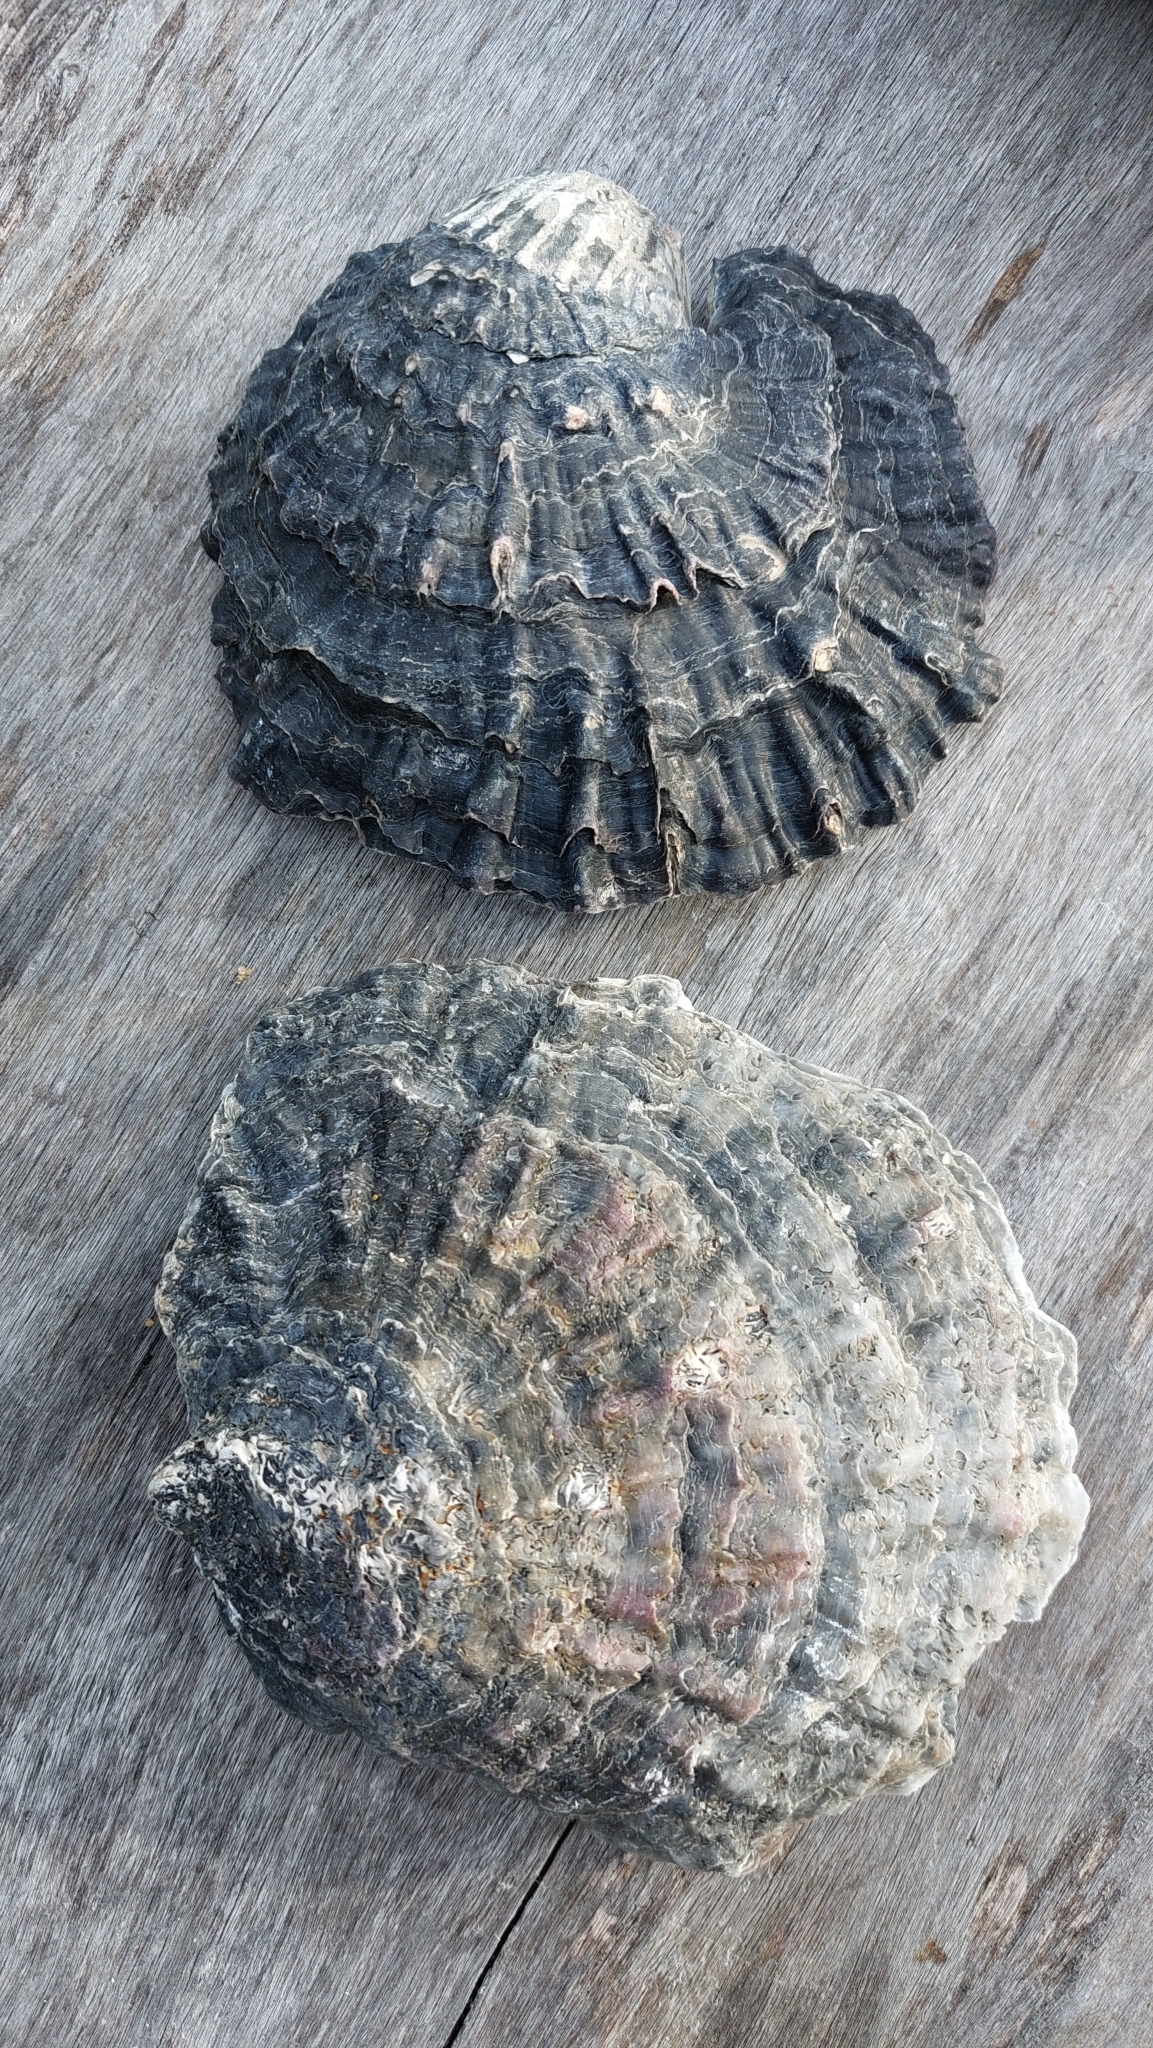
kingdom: Animalia
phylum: Mollusca
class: Bivalvia
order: Ostreida
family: Ostreidae
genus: Ostrea
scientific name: Ostrea edulis
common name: Flat oyster
